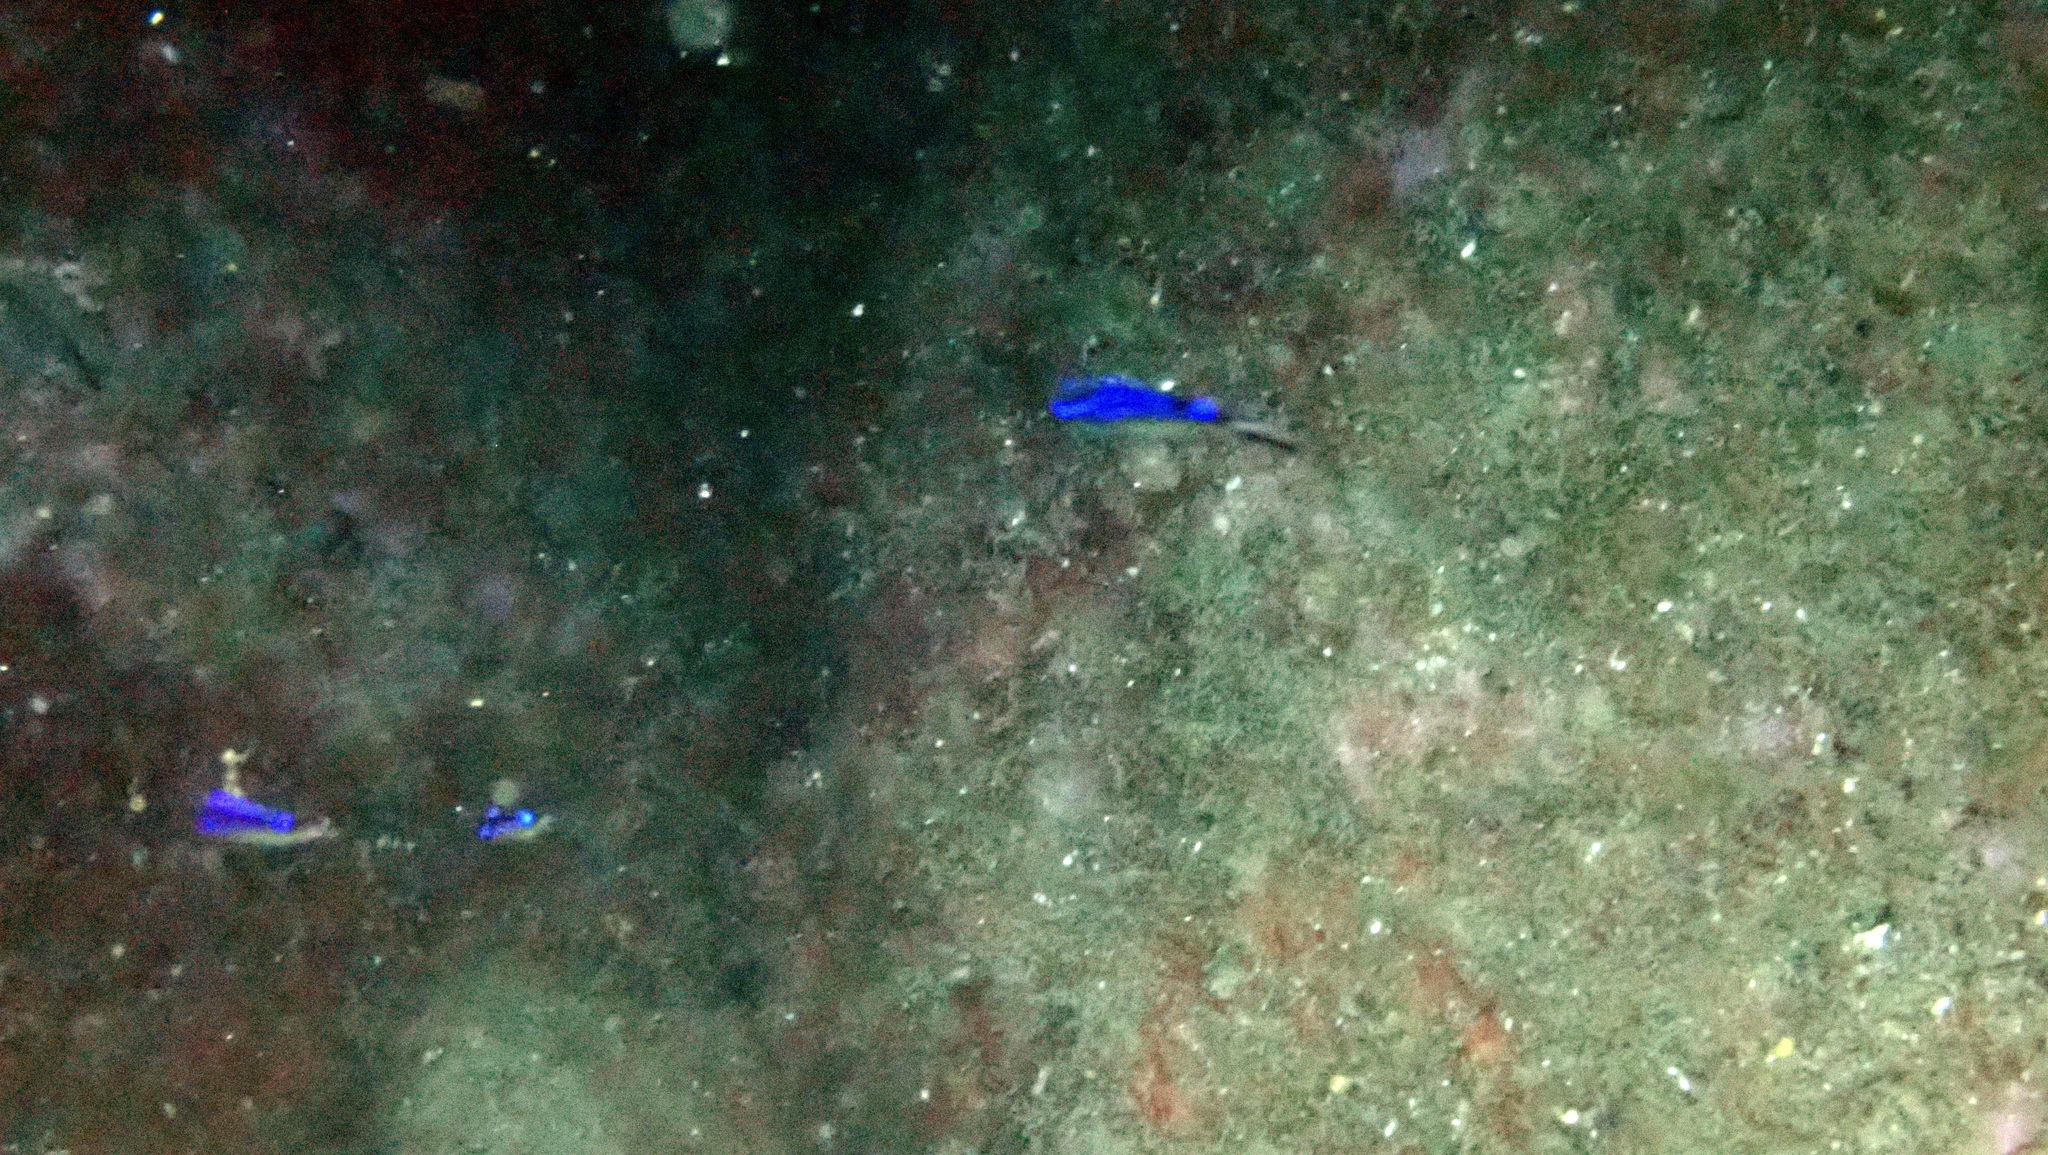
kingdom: Animalia
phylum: Chordata
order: Perciformes
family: Pomacentridae
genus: Chromis
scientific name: Chromis chromis
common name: Damselfish
